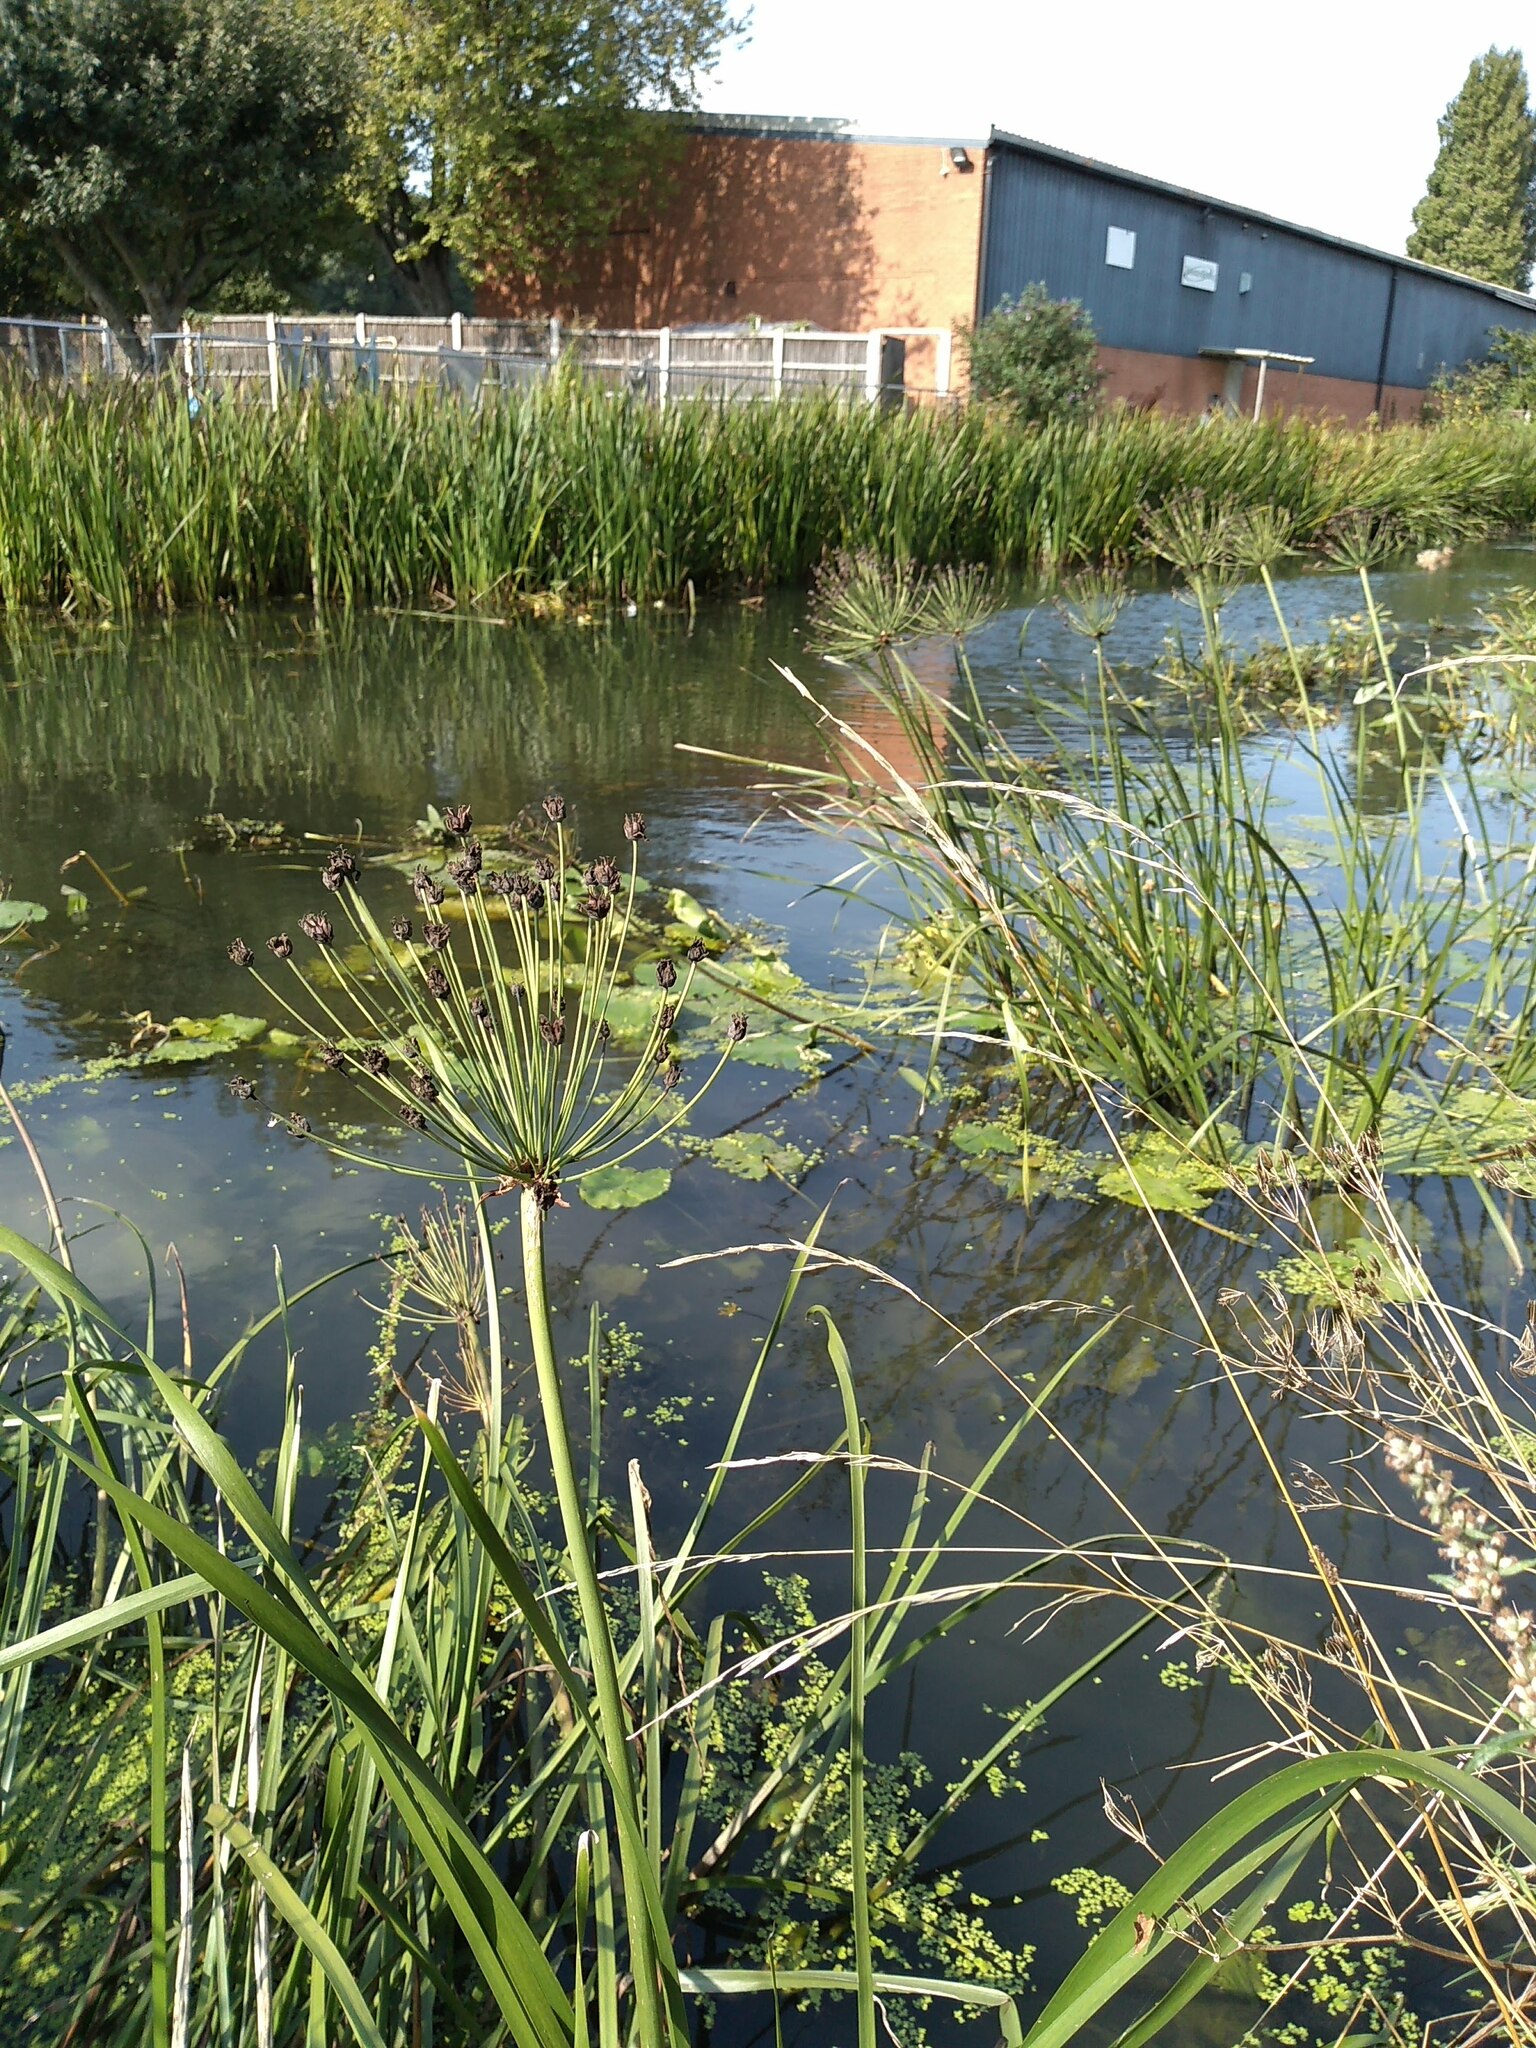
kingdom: Plantae
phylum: Tracheophyta
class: Liliopsida
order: Alismatales
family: Butomaceae
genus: Butomus
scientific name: Butomus umbellatus
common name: Flowering-rush
